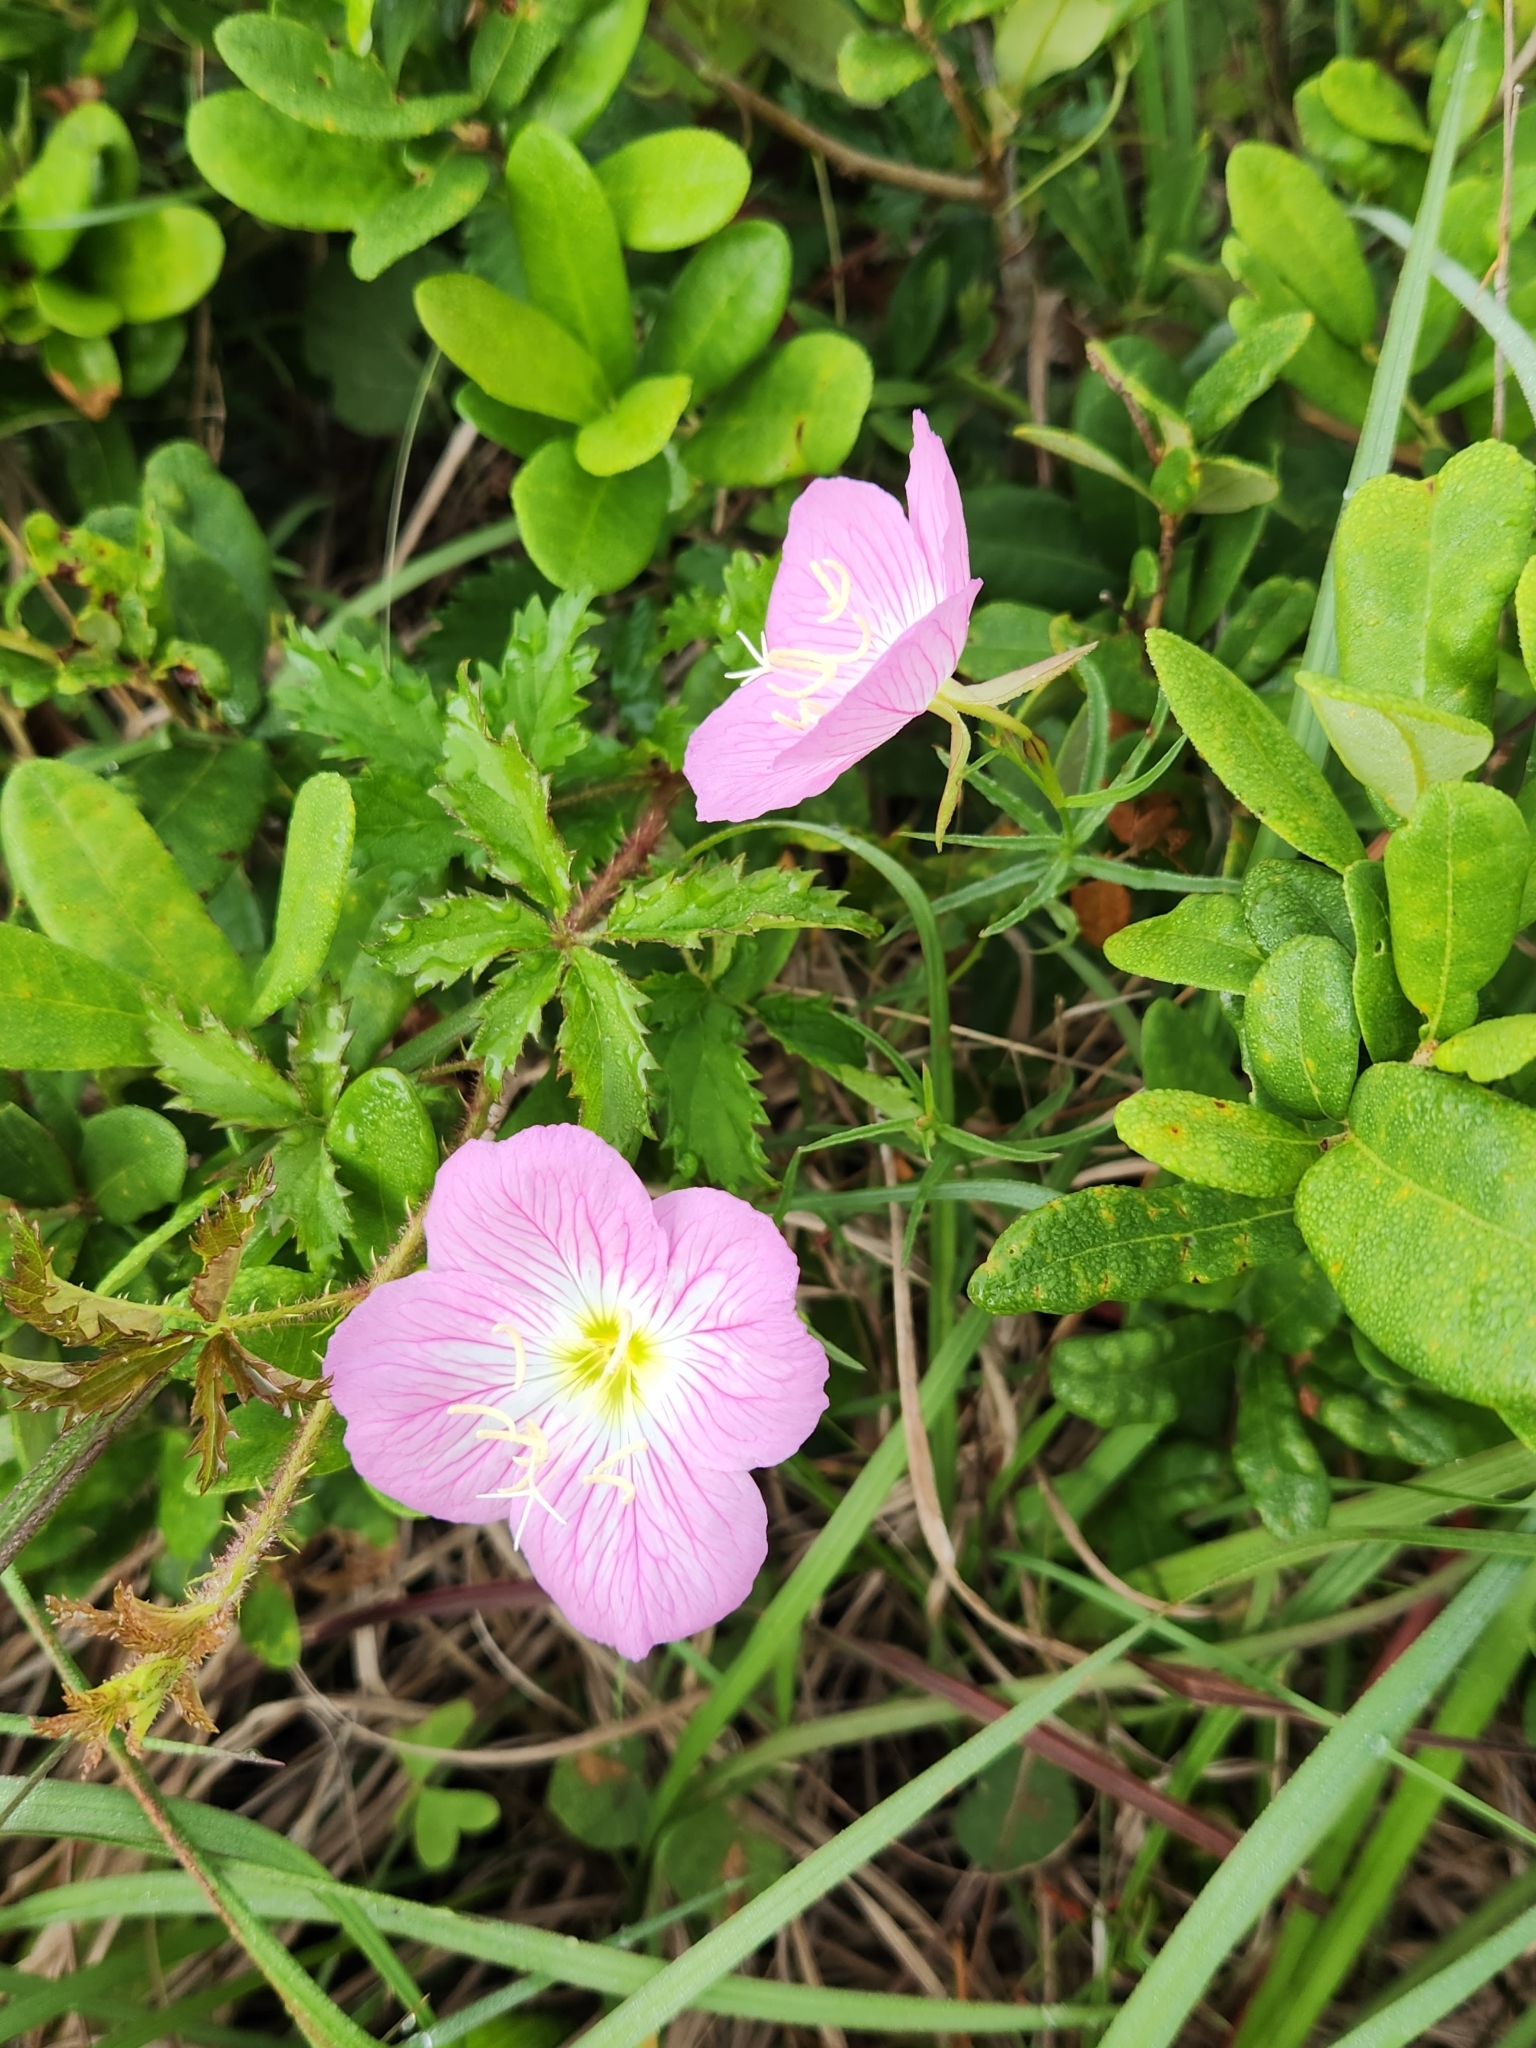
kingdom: Plantae
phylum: Tracheophyta
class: Magnoliopsida
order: Myrtales
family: Onagraceae
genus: Oenothera
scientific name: Oenothera speciosa
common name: White evening-primrose
